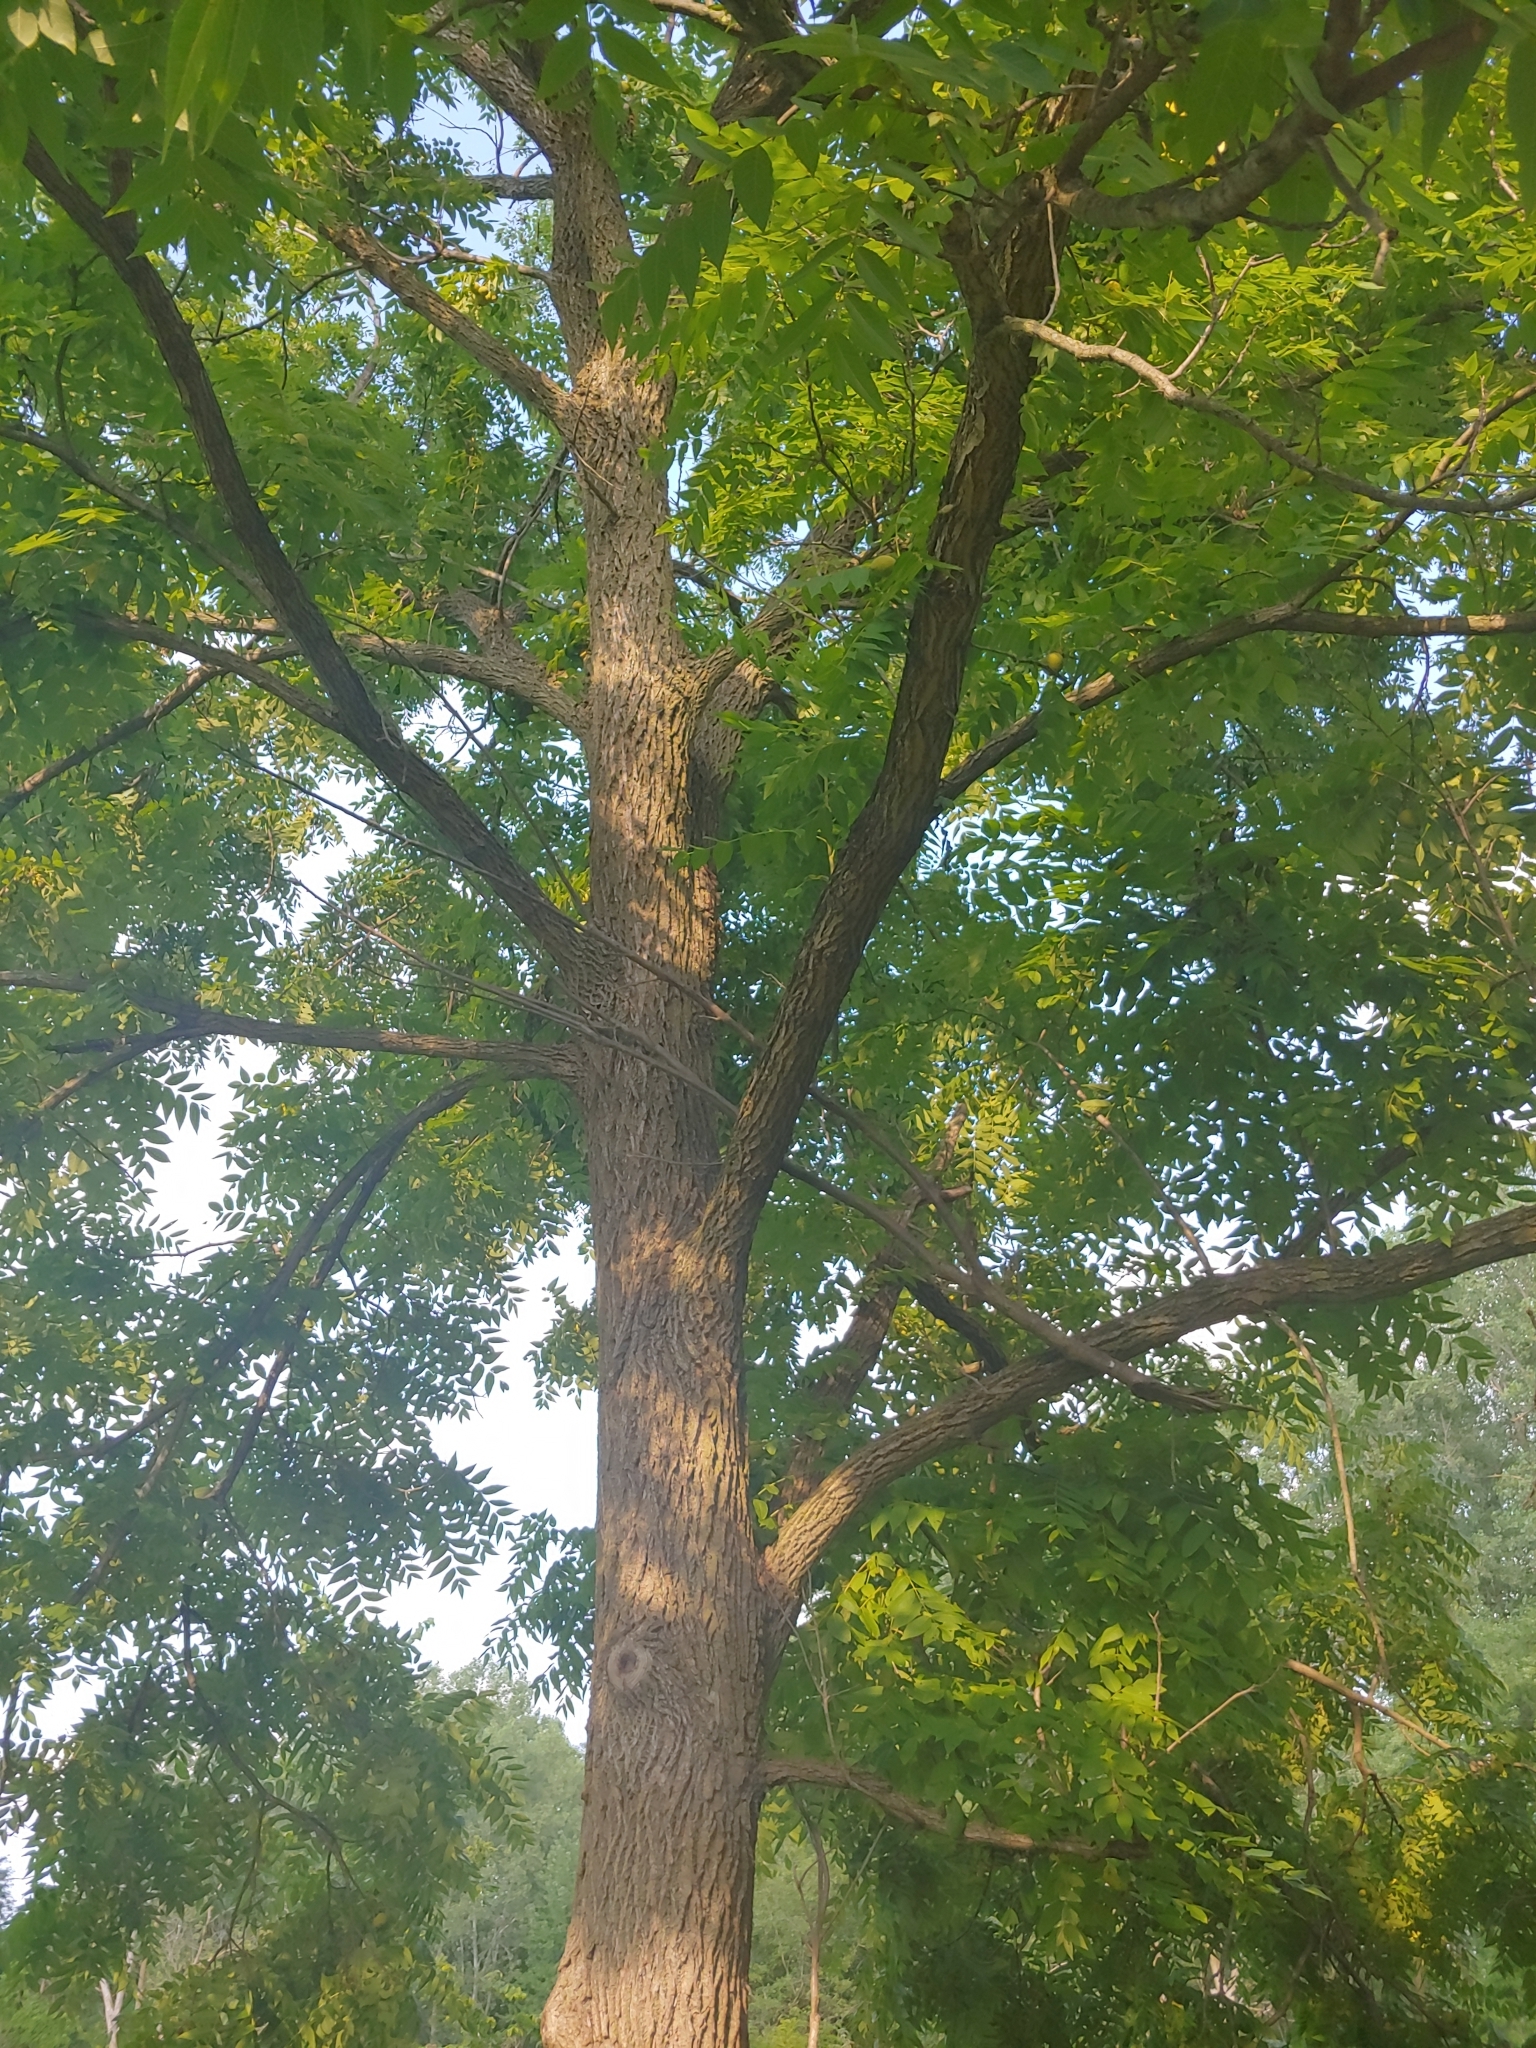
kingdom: Plantae
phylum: Tracheophyta
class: Magnoliopsida
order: Fagales
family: Juglandaceae
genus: Juglans
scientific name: Juglans nigra
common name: Black walnut
